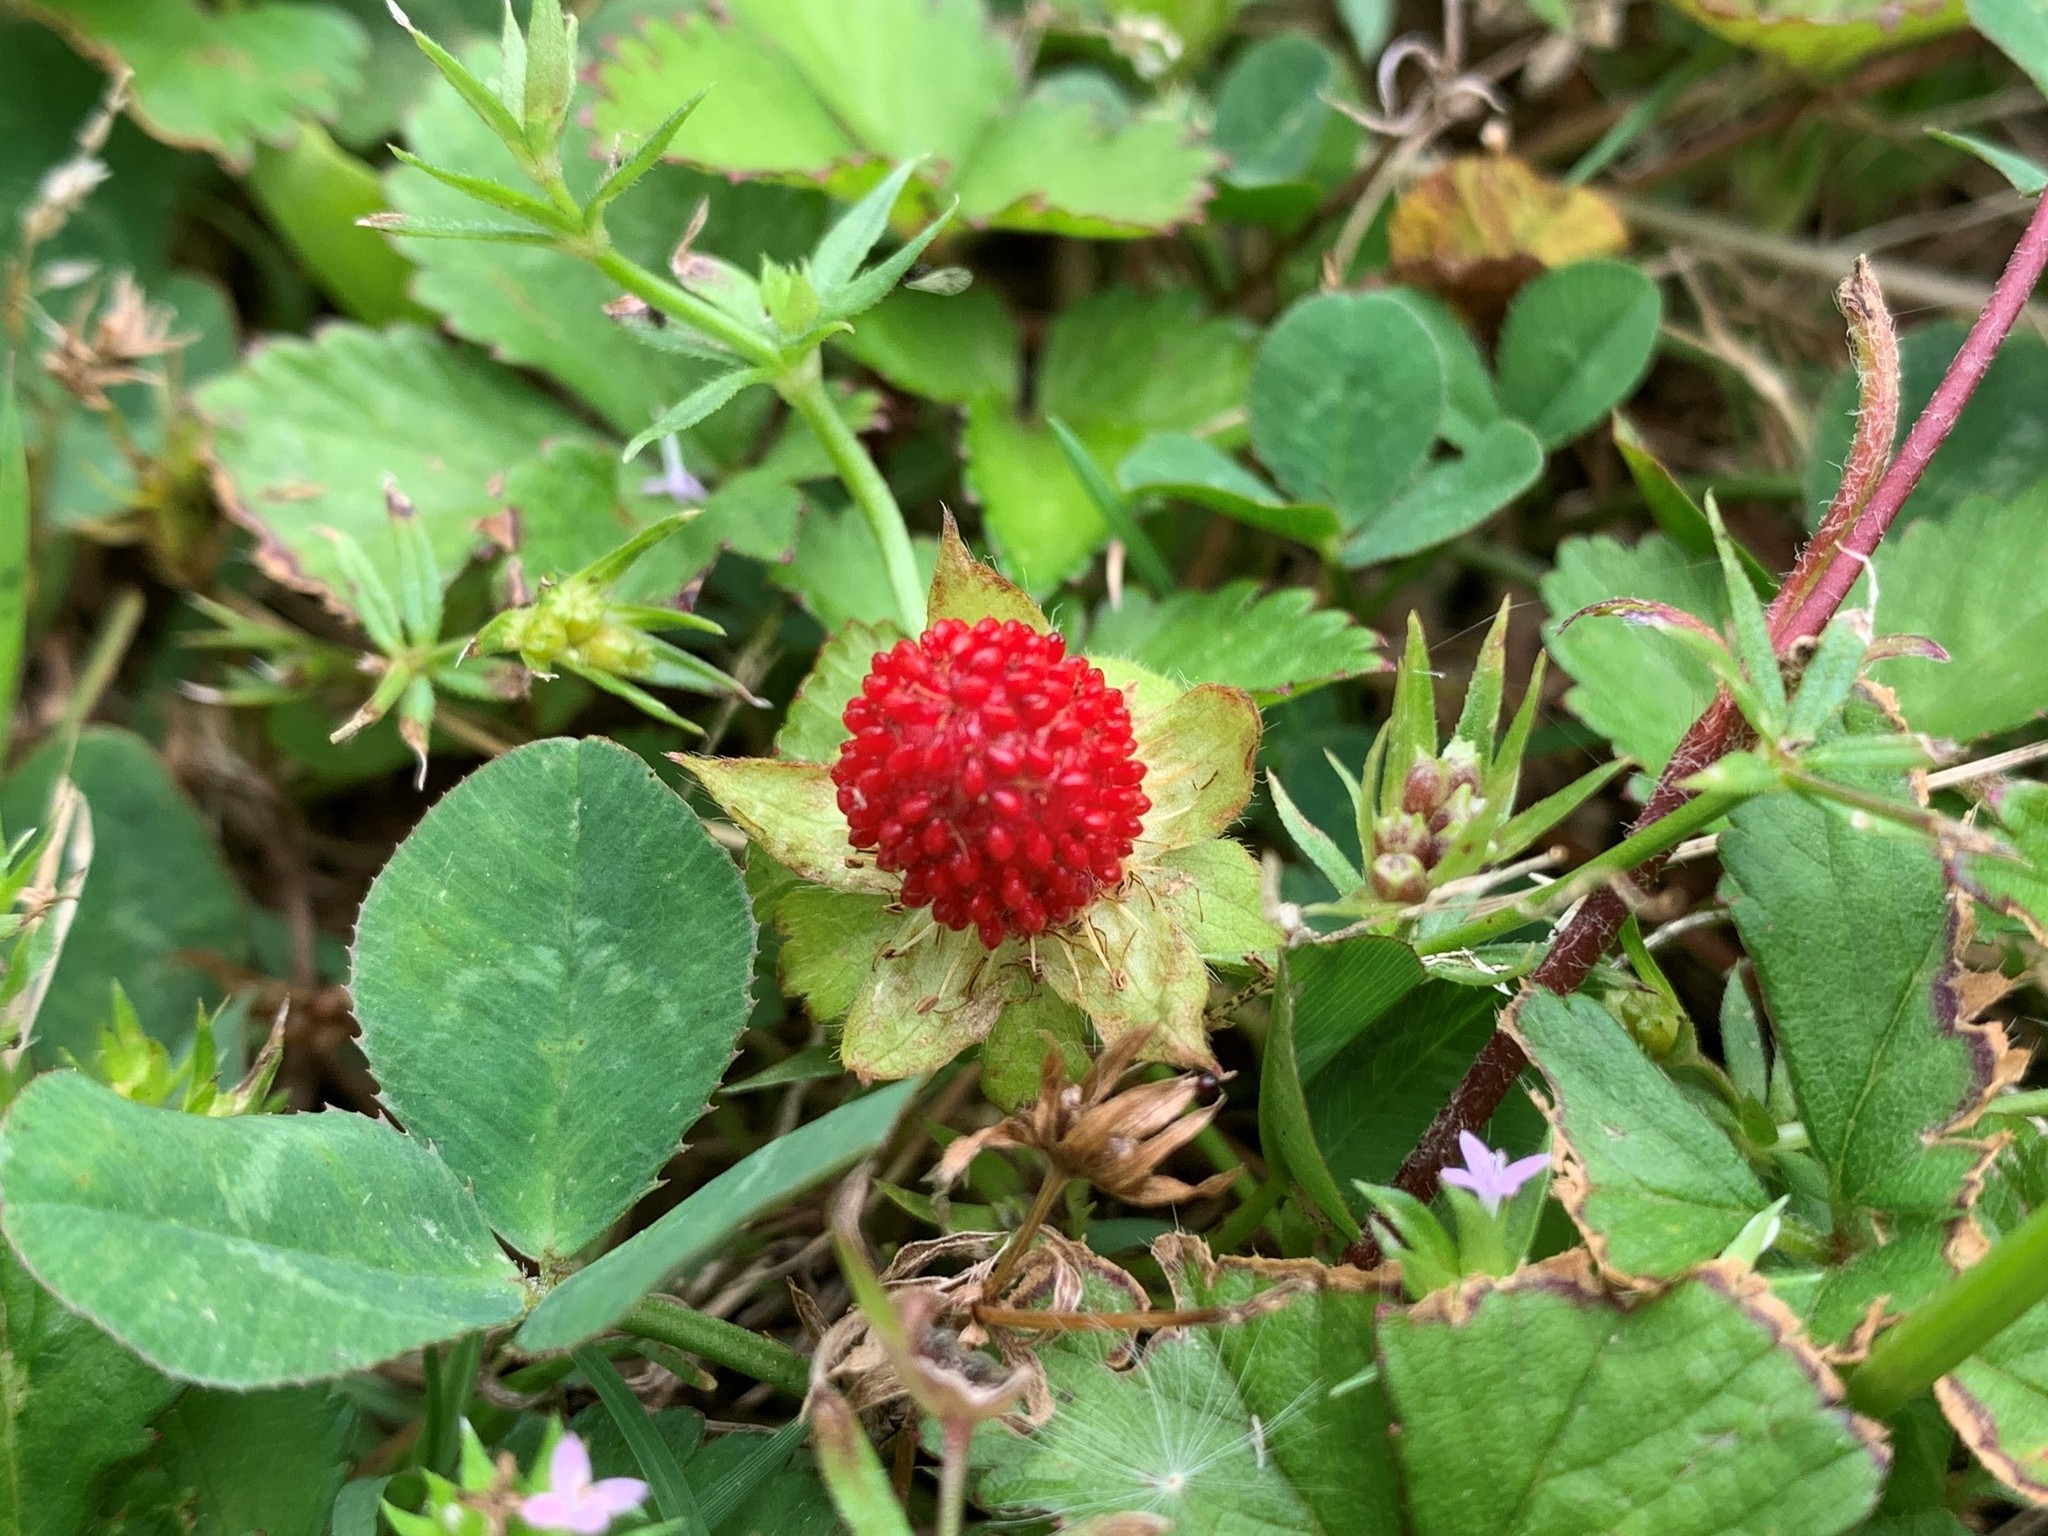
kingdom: Plantae
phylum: Tracheophyta
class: Magnoliopsida
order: Rosales
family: Rosaceae
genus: Potentilla
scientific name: Potentilla indica
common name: Yellow-flowered strawberry
